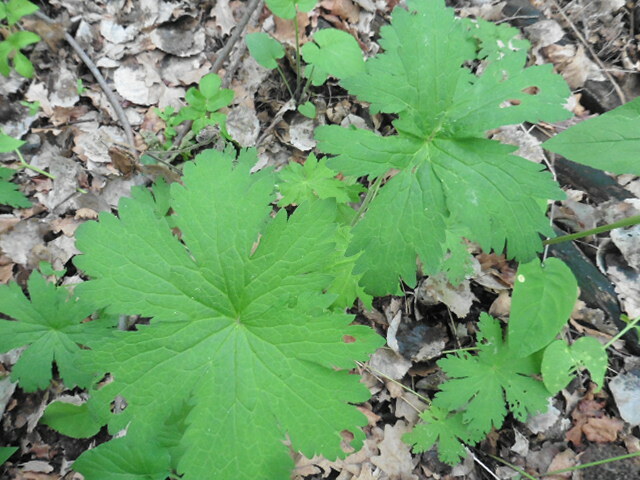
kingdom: Plantae
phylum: Tracheophyta
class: Magnoliopsida
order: Geraniales
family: Geraniaceae
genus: Geranium
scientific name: Geranium sylvaticum
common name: Wood crane's-bill
